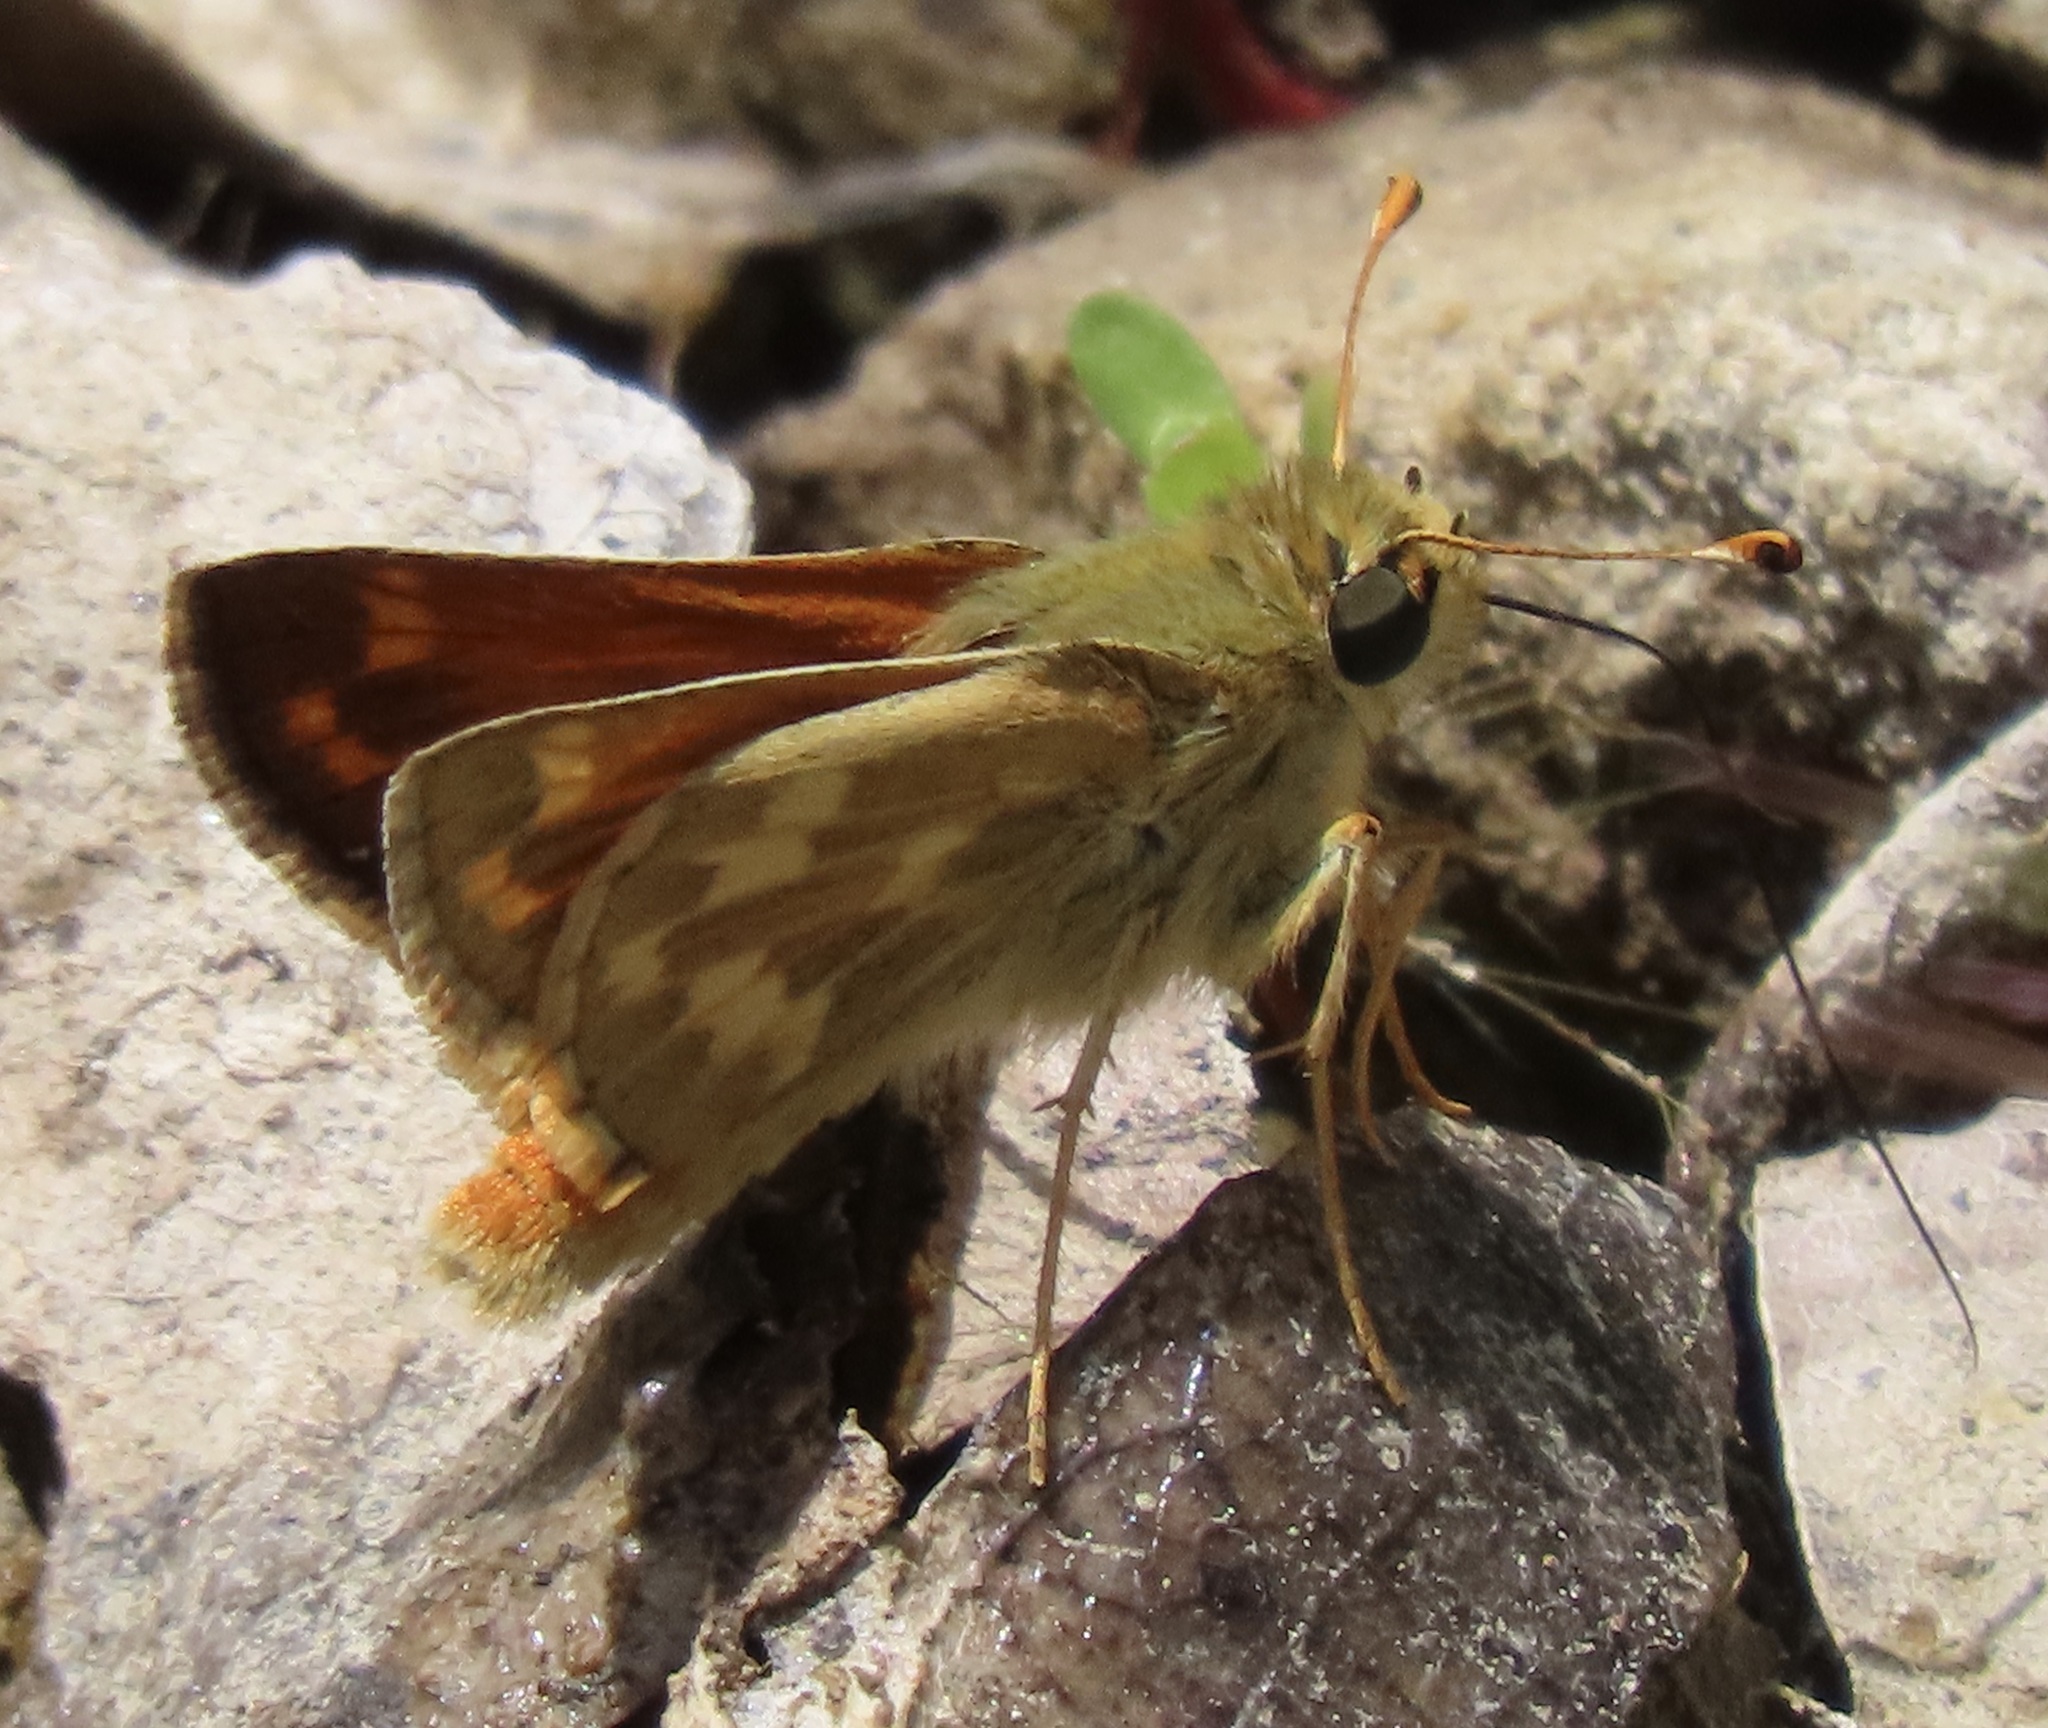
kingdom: Animalia
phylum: Arthropoda
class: Insecta
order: Lepidoptera
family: Hesperiidae
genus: Hesperia
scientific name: Hesperia lindseyi
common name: Lindsey's skipper
